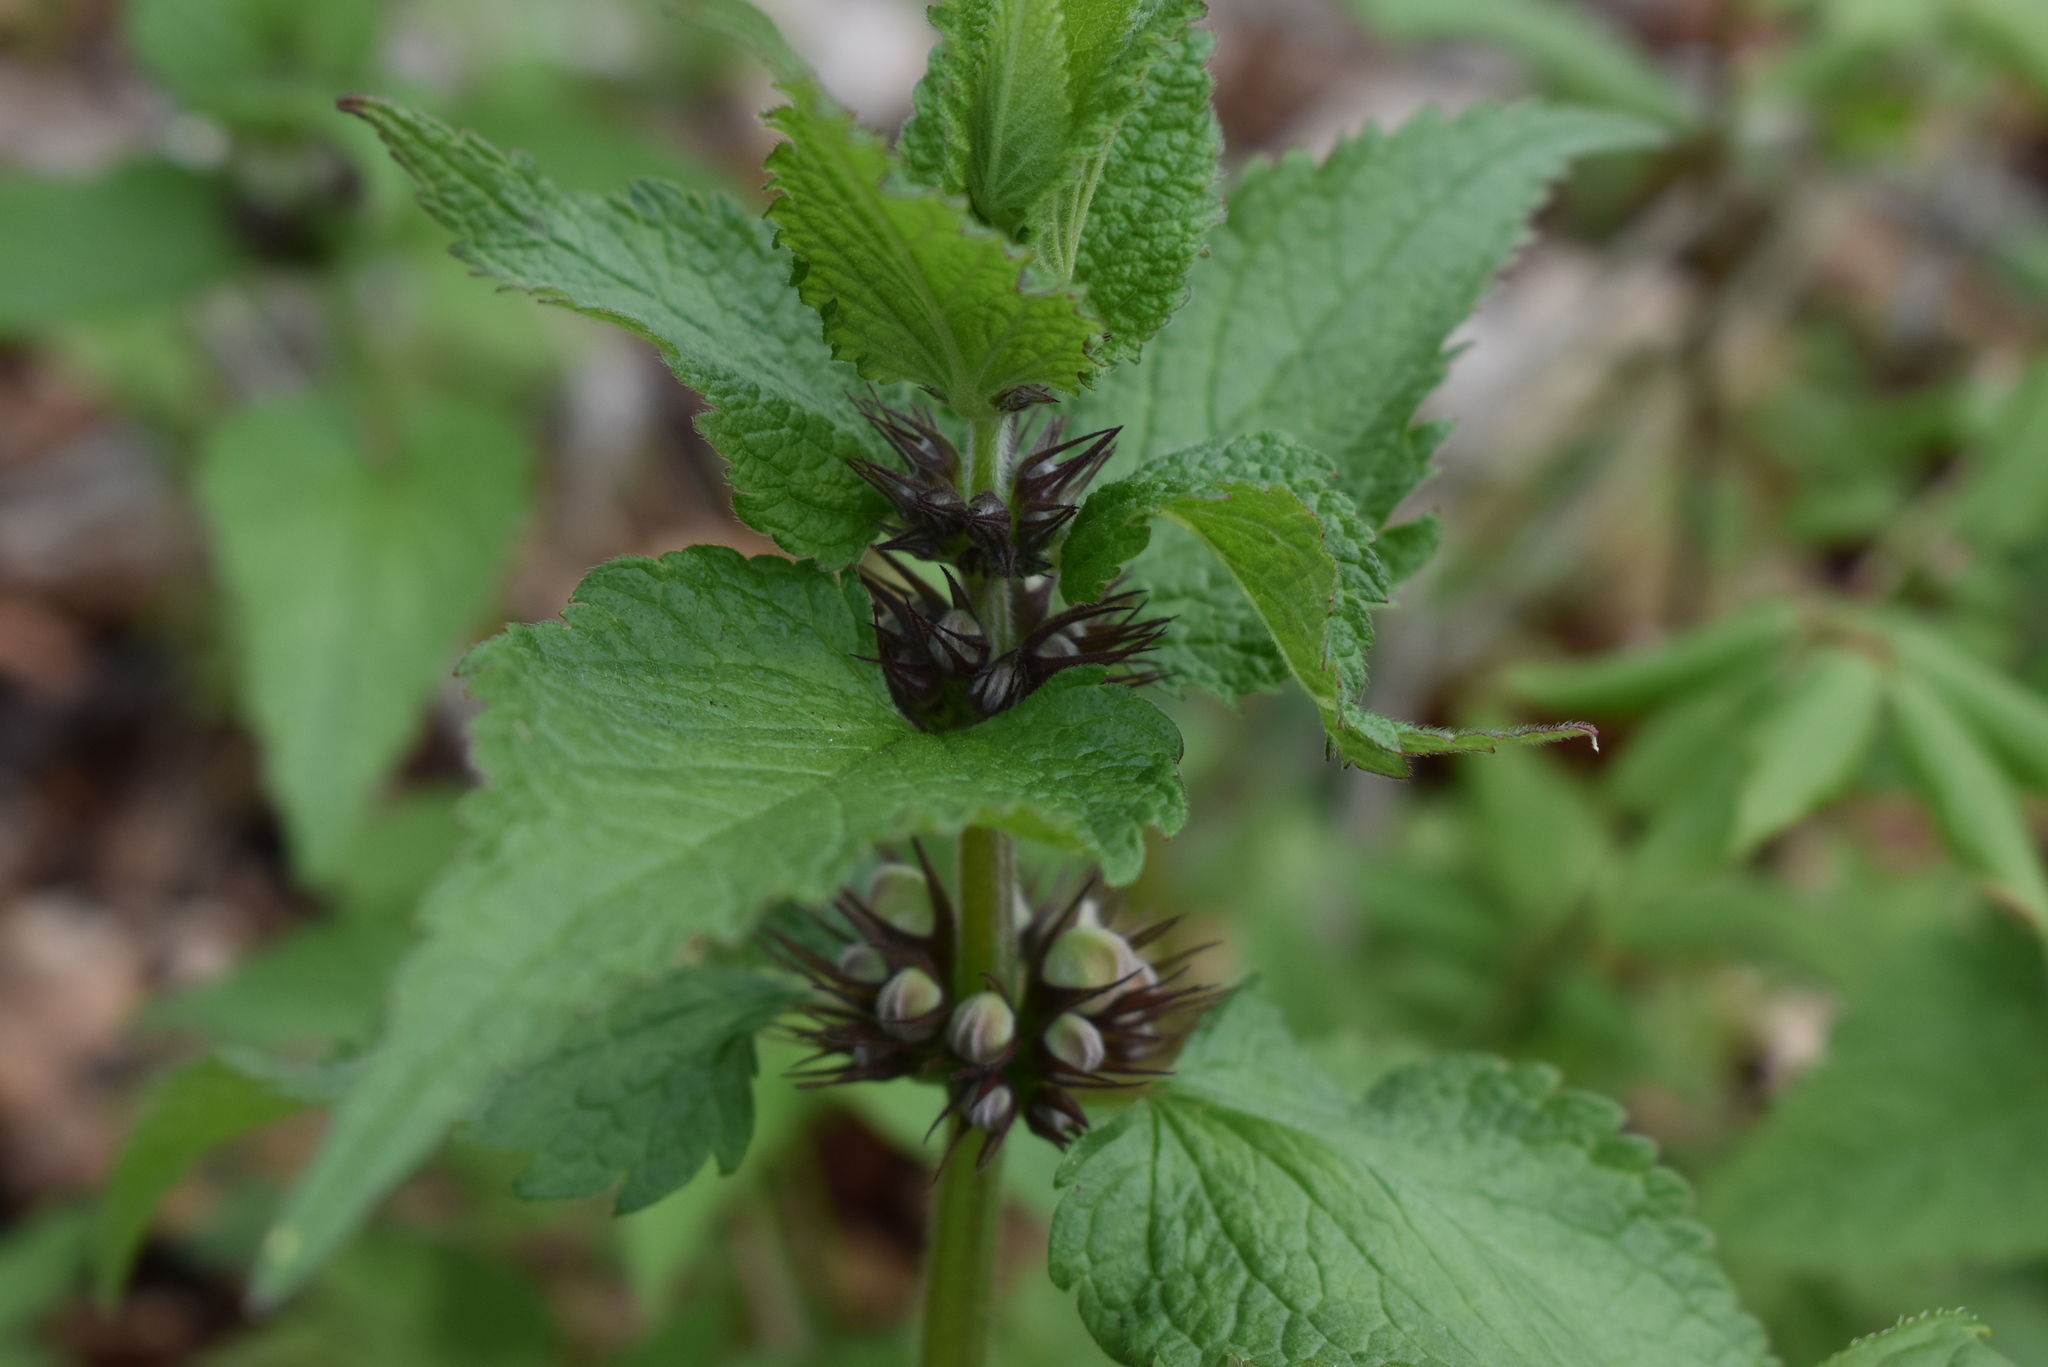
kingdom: Plantae
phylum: Tracheophyta
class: Magnoliopsida
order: Lamiales
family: Lamiaceae
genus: Lamium
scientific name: Lamium album
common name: White dead-nettle
